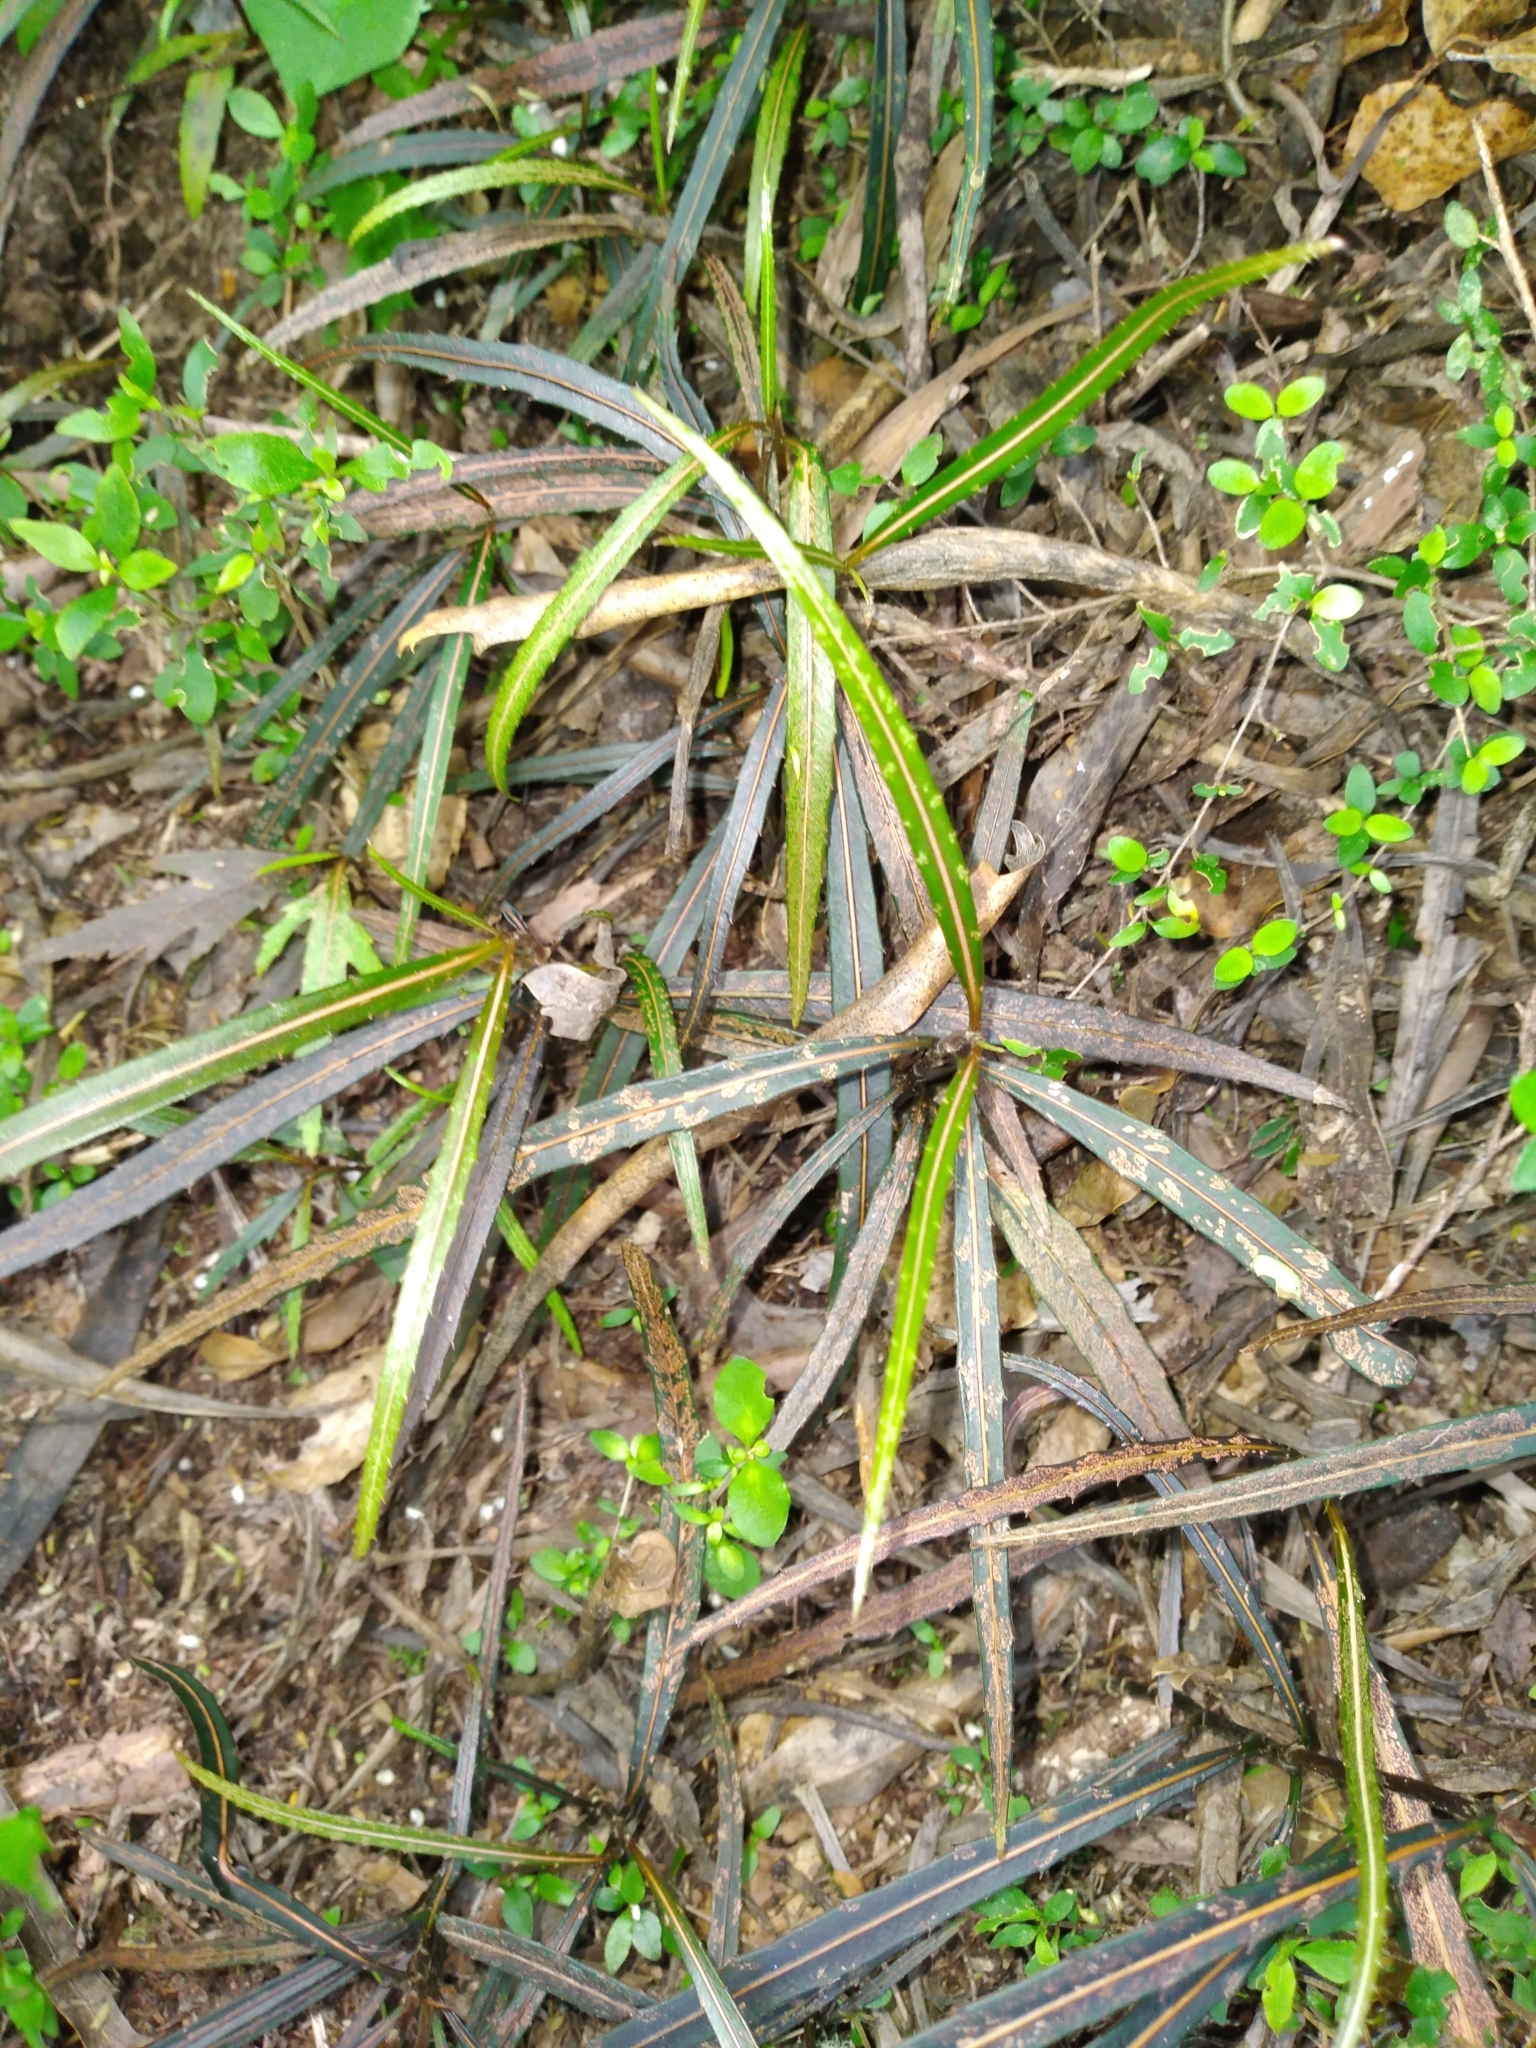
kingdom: Plantae
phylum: Tracheophyta
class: Magnoliopsida
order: Apiales
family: Araliaceae
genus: Pseudopanax
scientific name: Pseudopanax crassifolius
